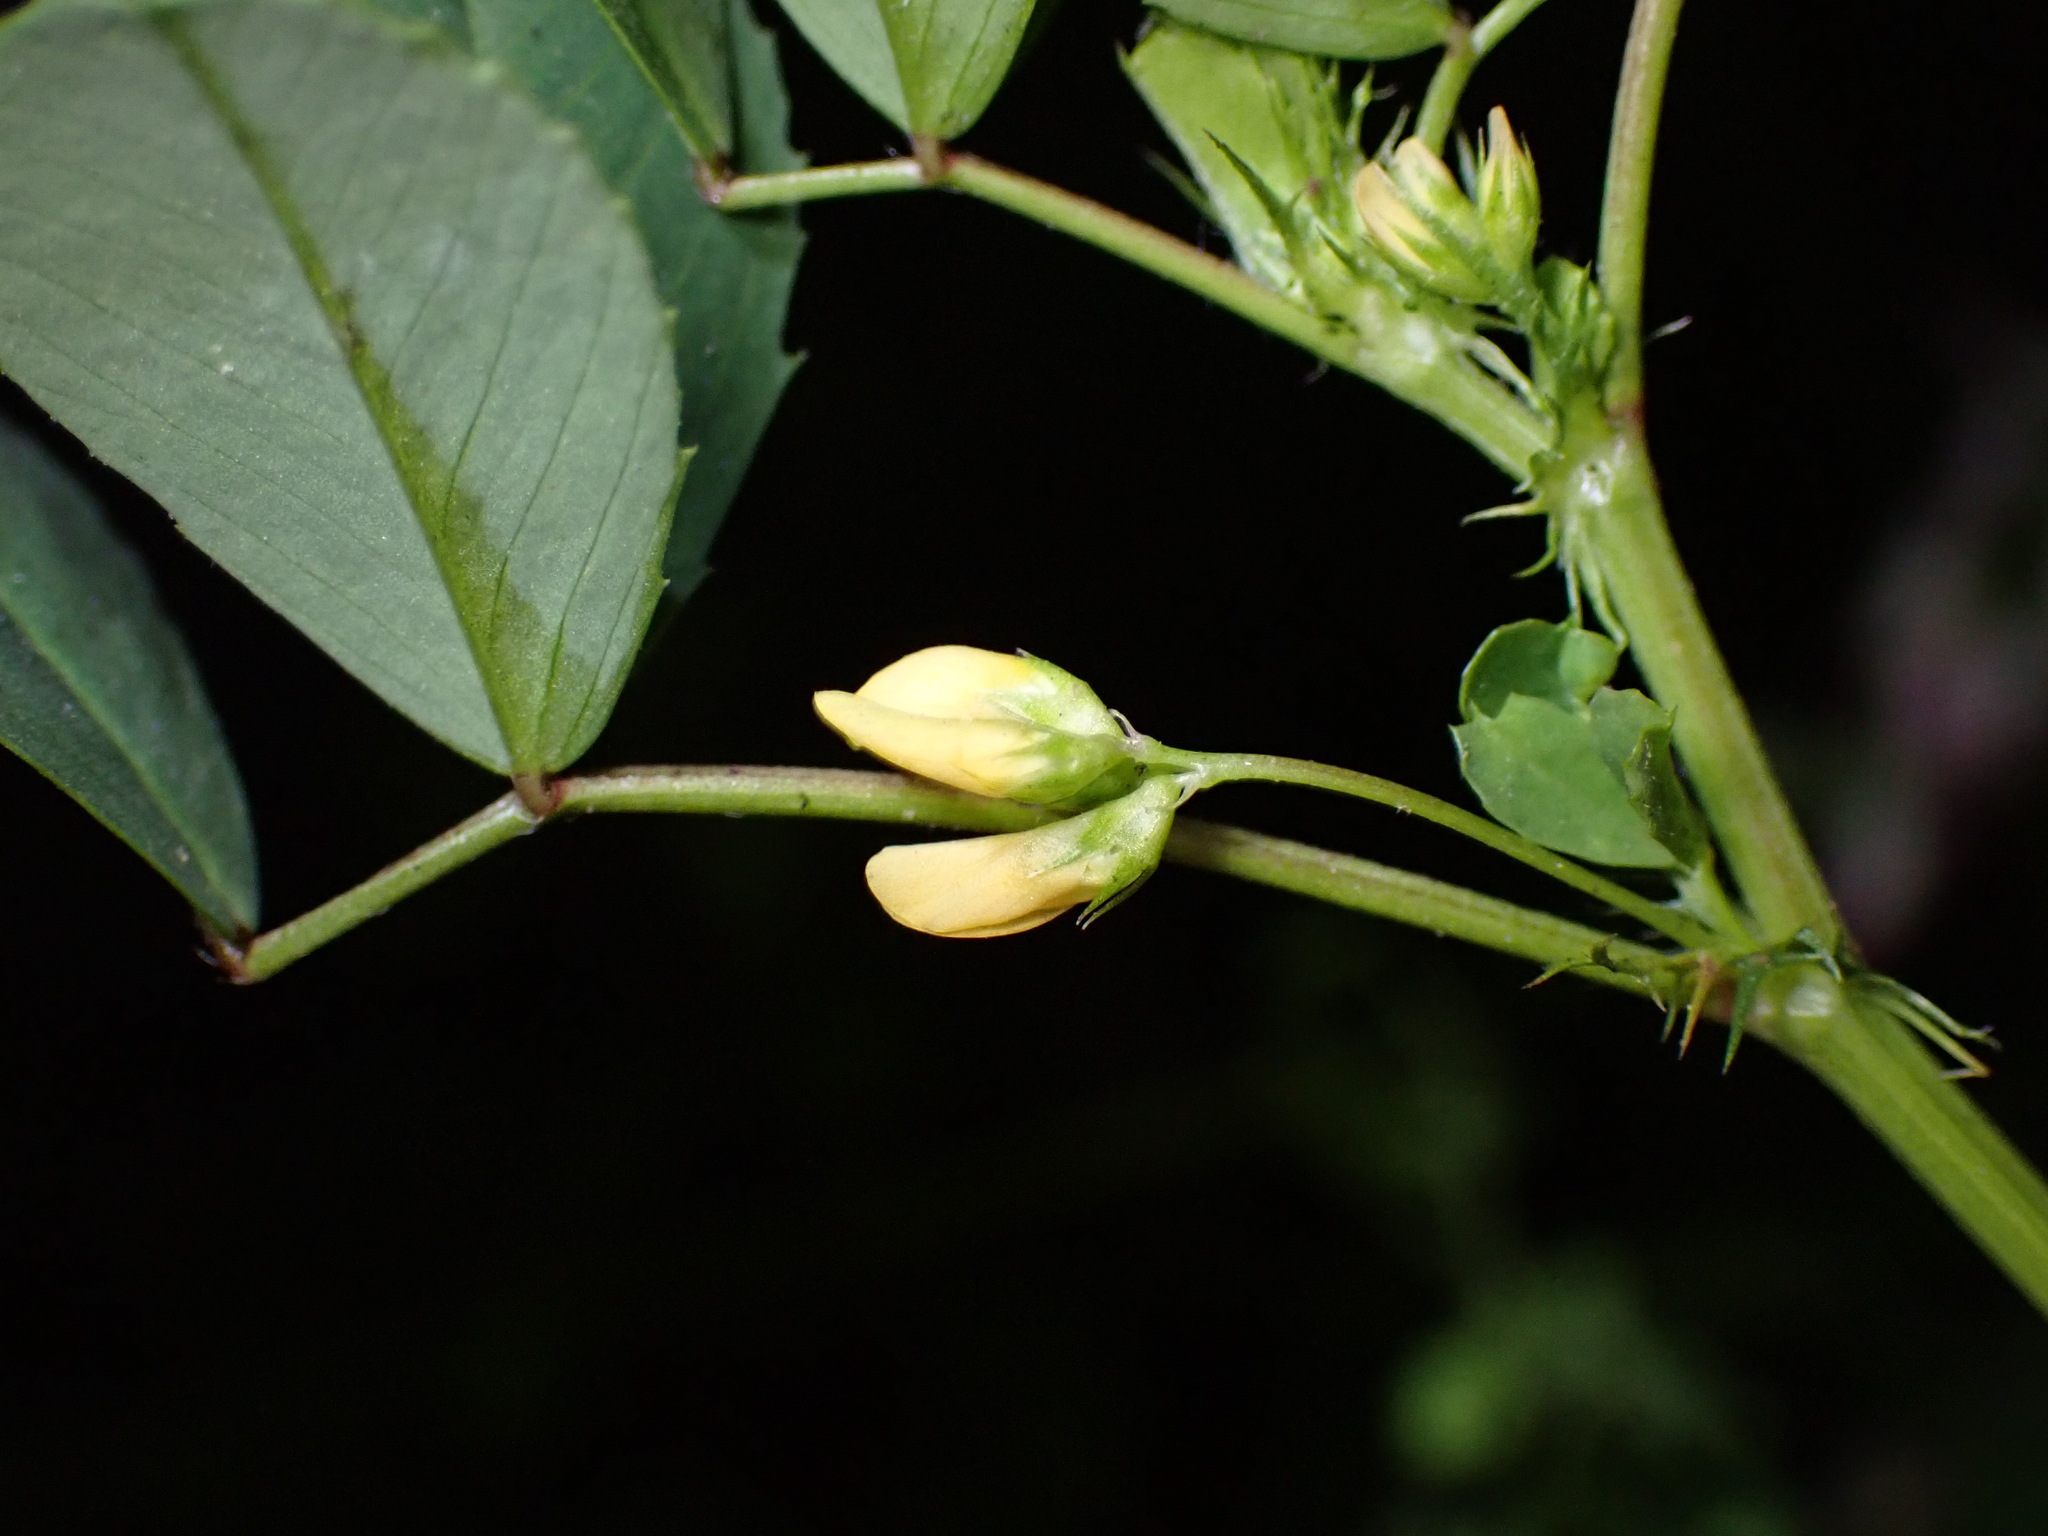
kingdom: Plantae
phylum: Tracheophyta
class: Magnoliopsida
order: Fabales
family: Fabaceae
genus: Medicago
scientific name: Medicago polymorpha
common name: Burclover
